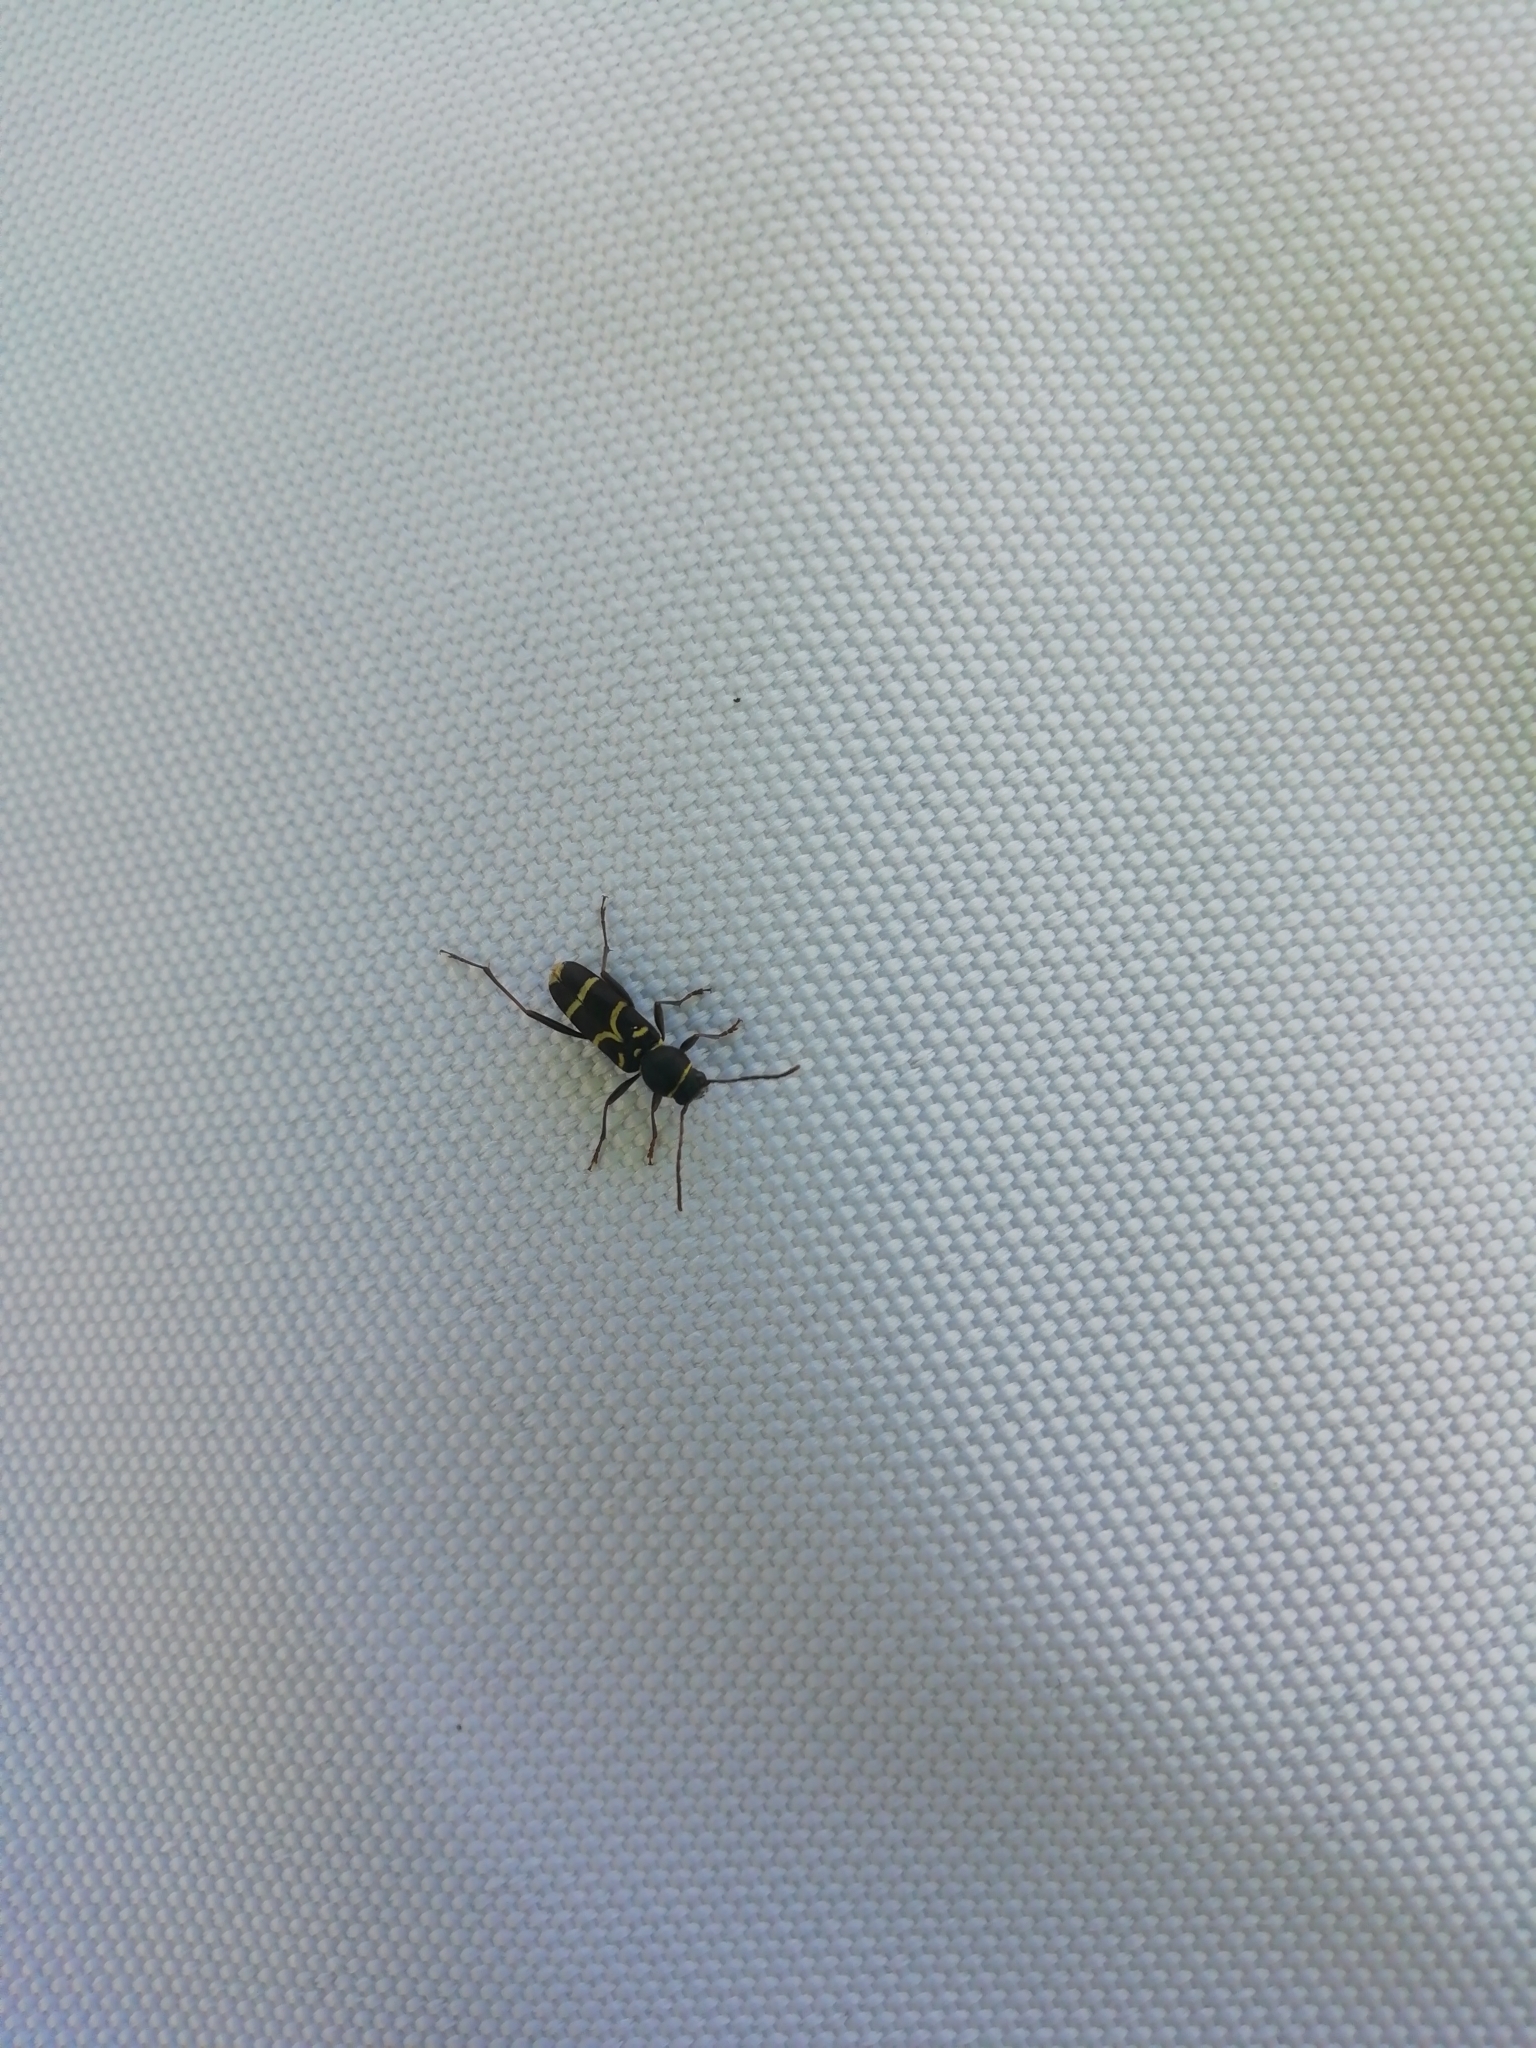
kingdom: Animalia
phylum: Arthropoda
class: Insecta
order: Coleoptera
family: Cerambycidae
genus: Clytus
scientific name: Clytus lama
